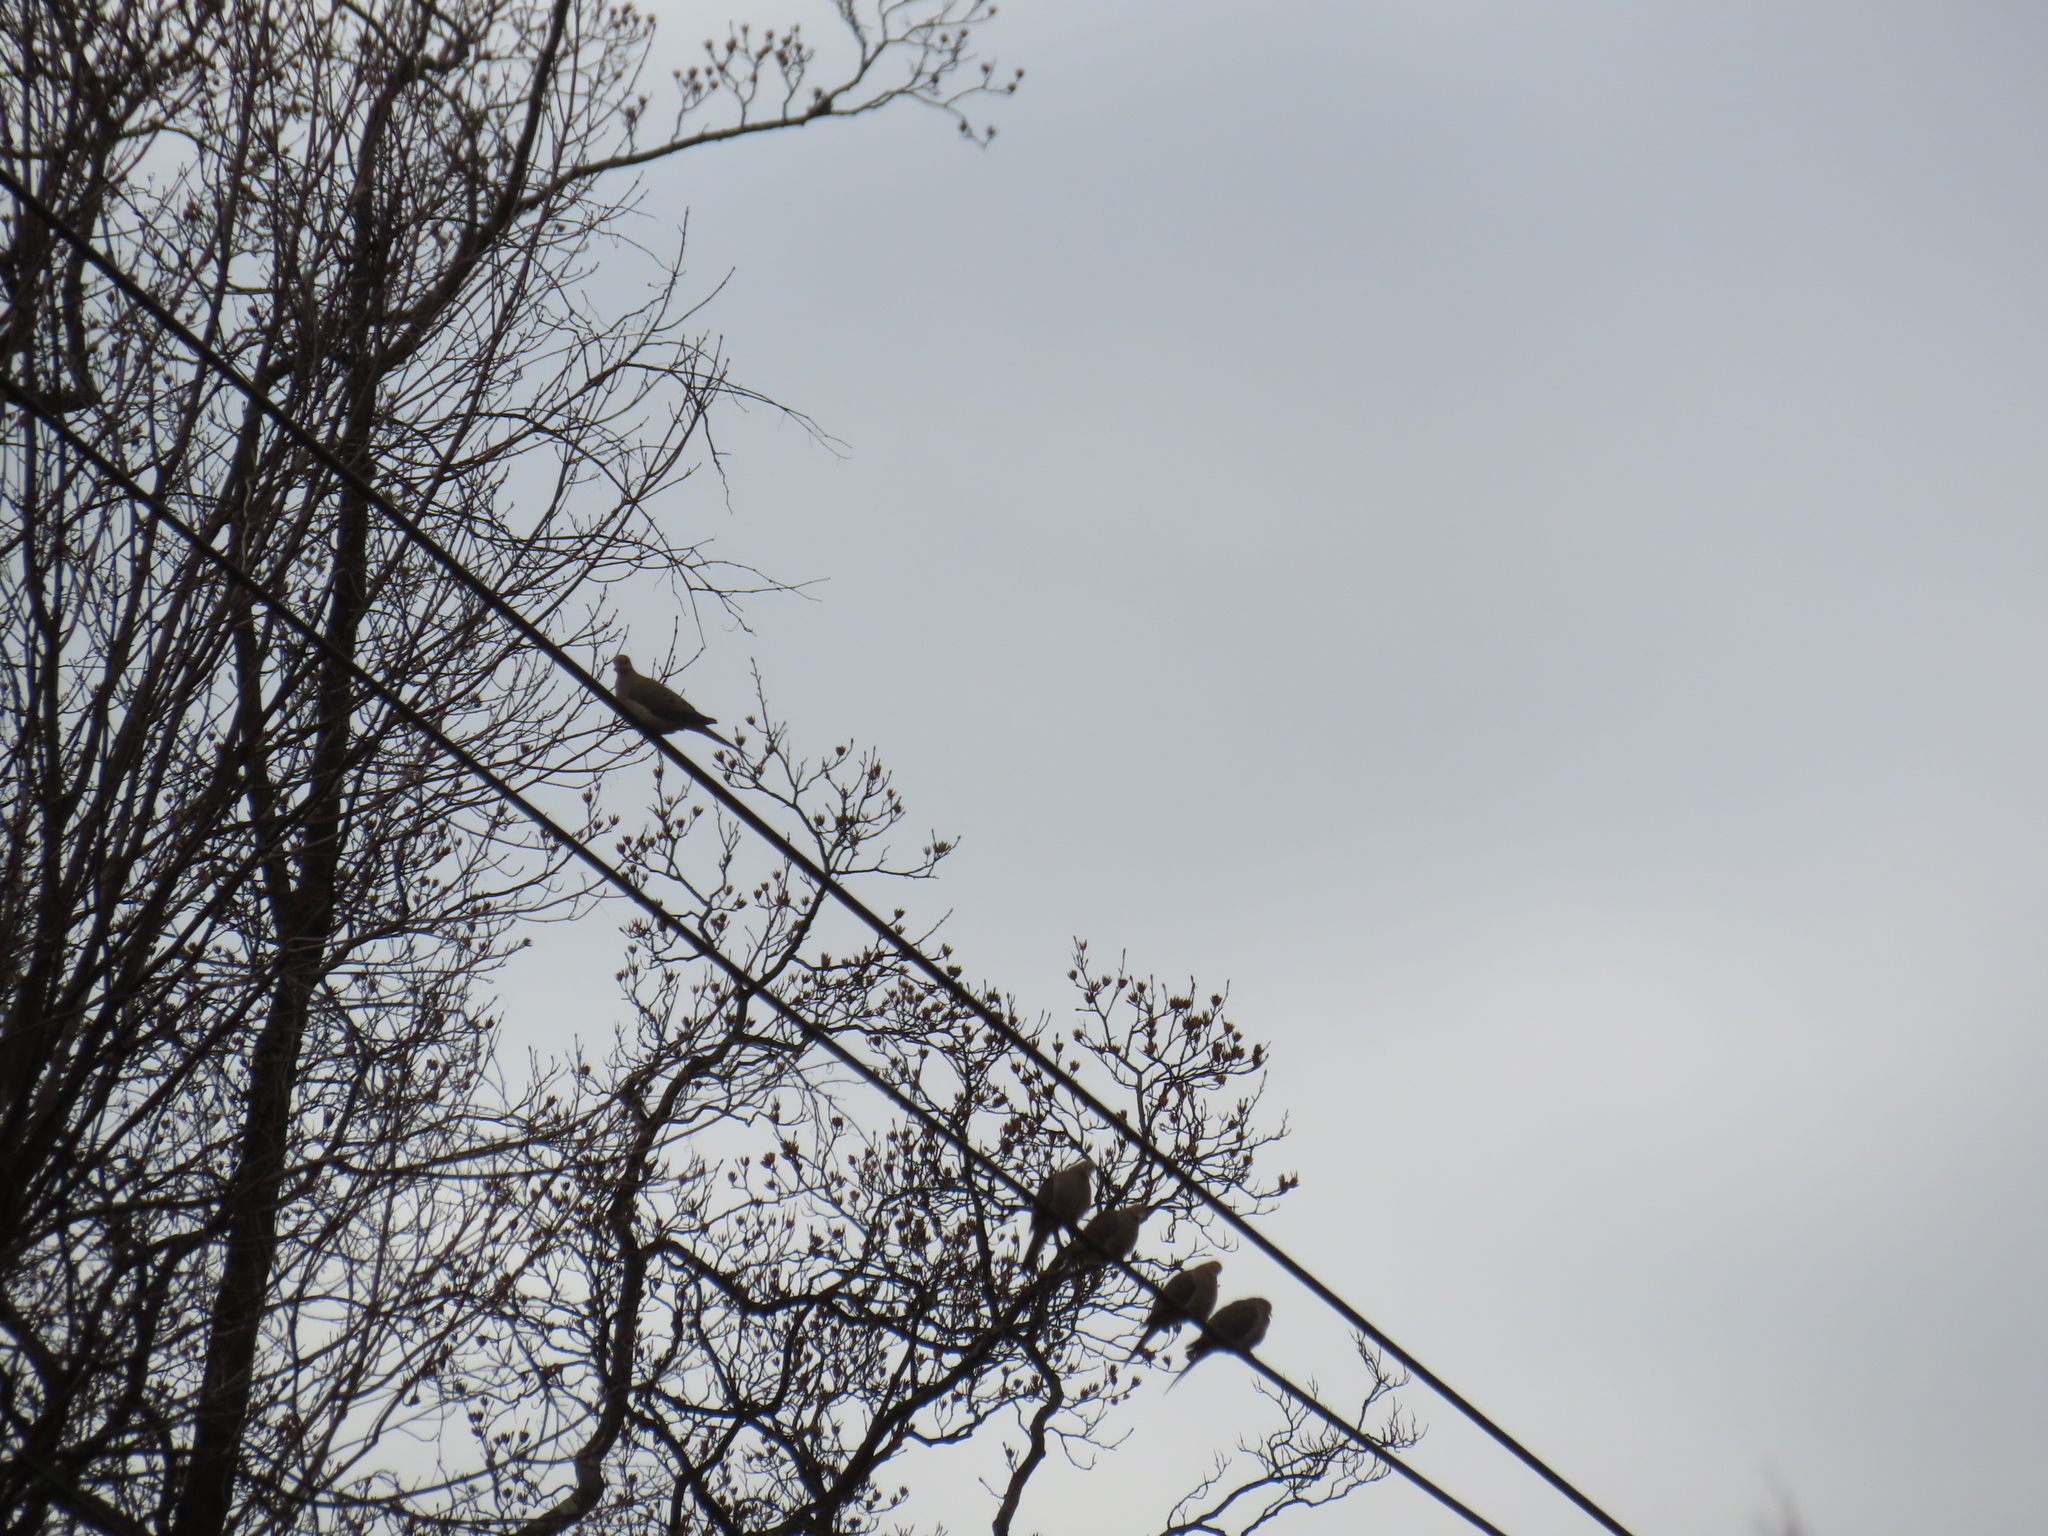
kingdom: Animalia
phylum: Chordata
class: Aves
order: Columbiformes
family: Columbidae
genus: Zenaida
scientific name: Zenaida macroura
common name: Mourning dove
